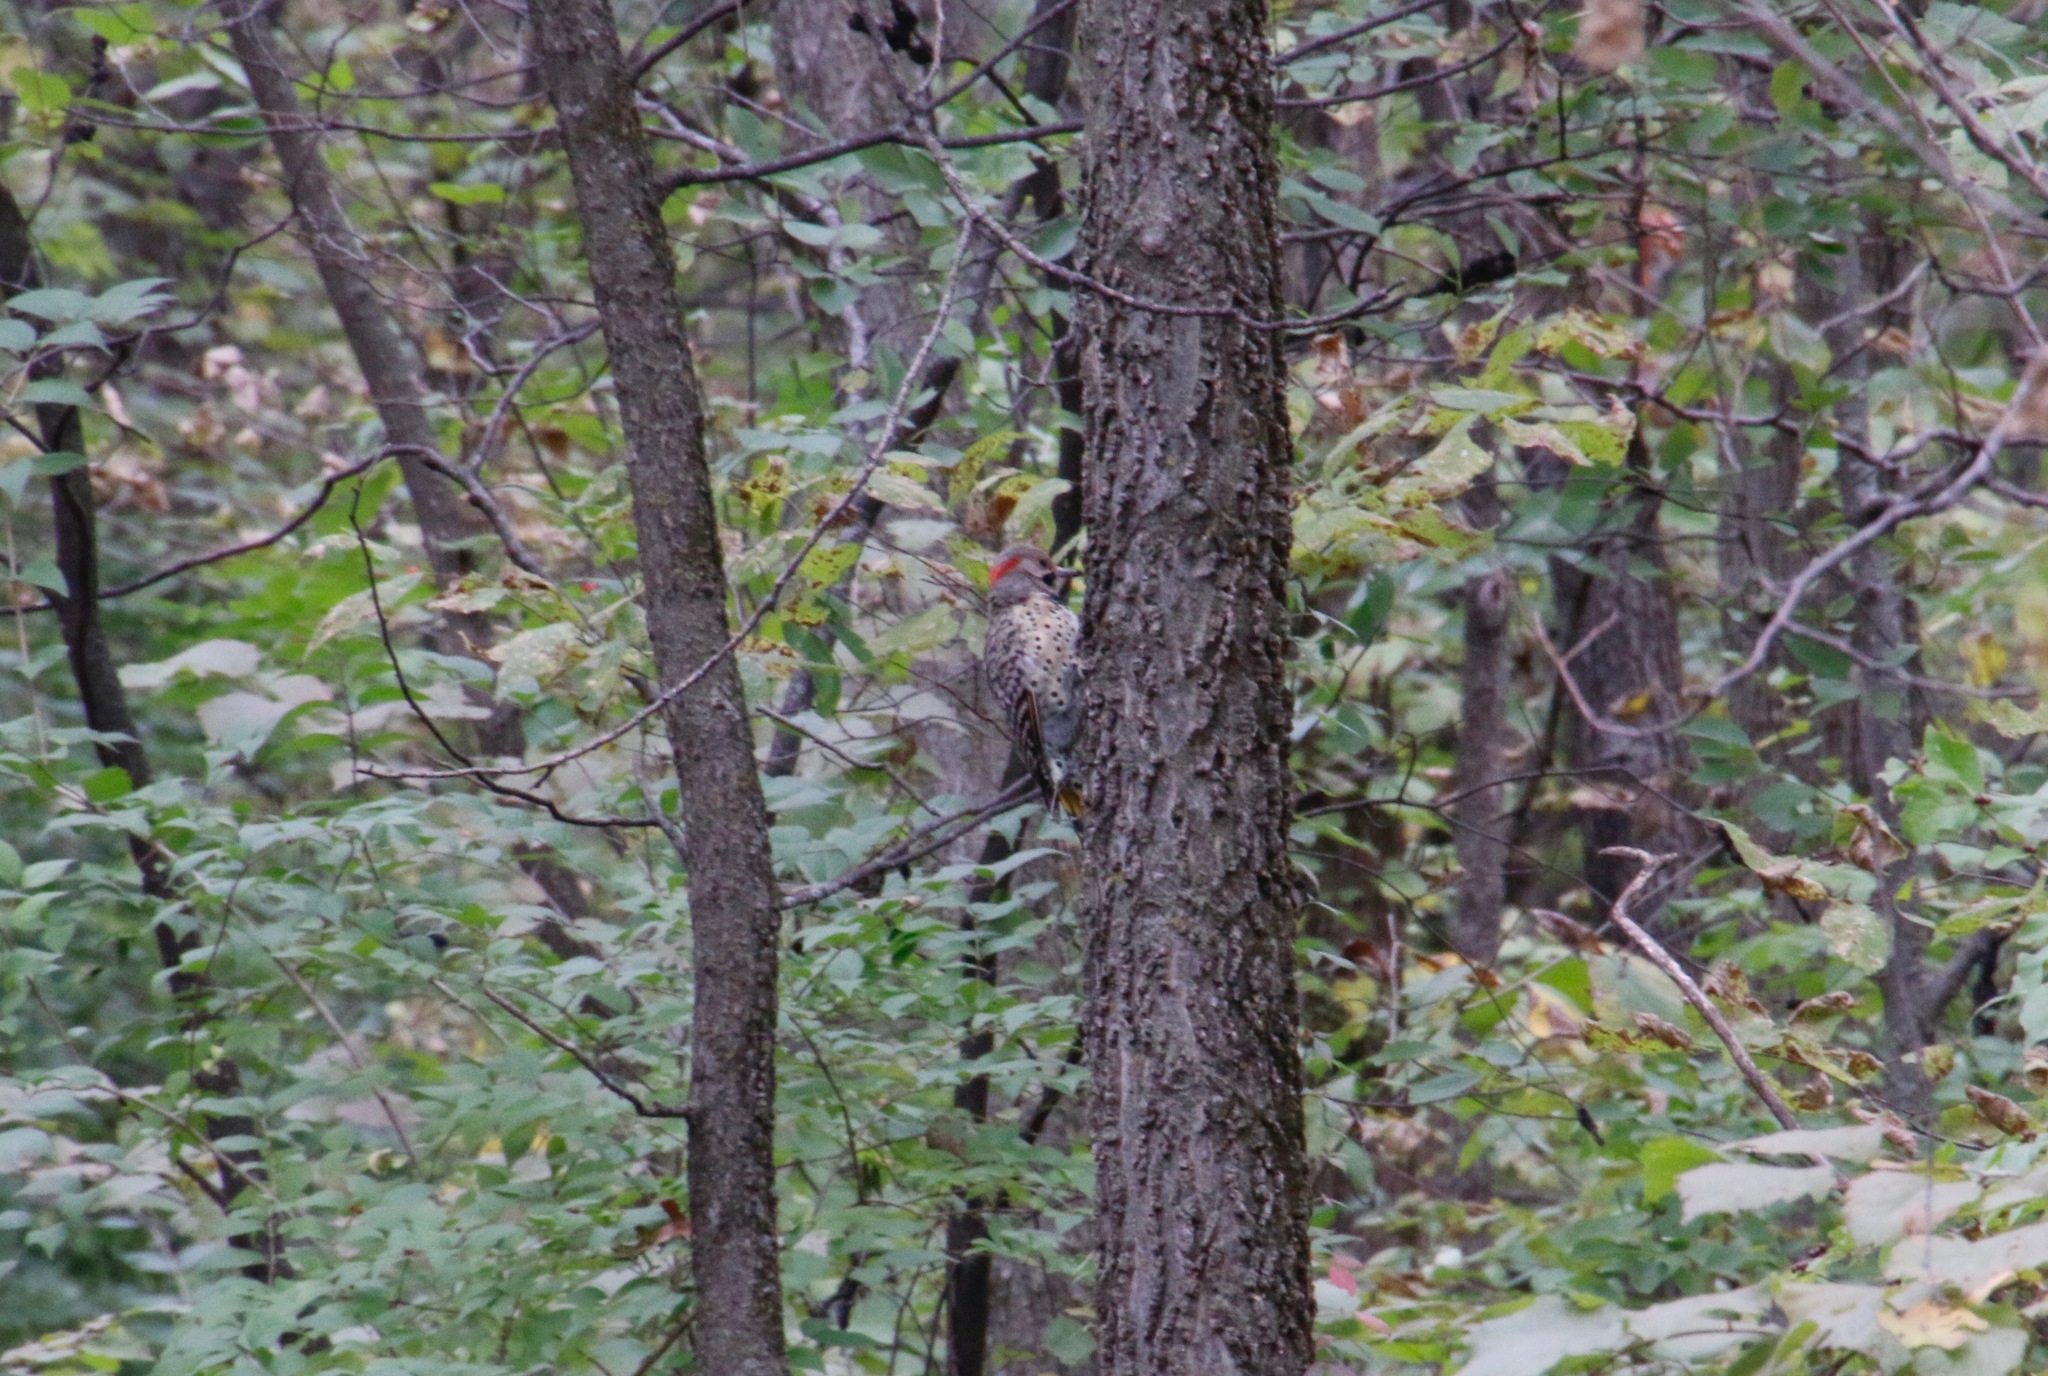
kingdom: Animalia
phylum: Chordata
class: Aves
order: Piciformes
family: Picidae
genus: Colaptes
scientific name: Colaptes auratus
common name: Northern flicker
